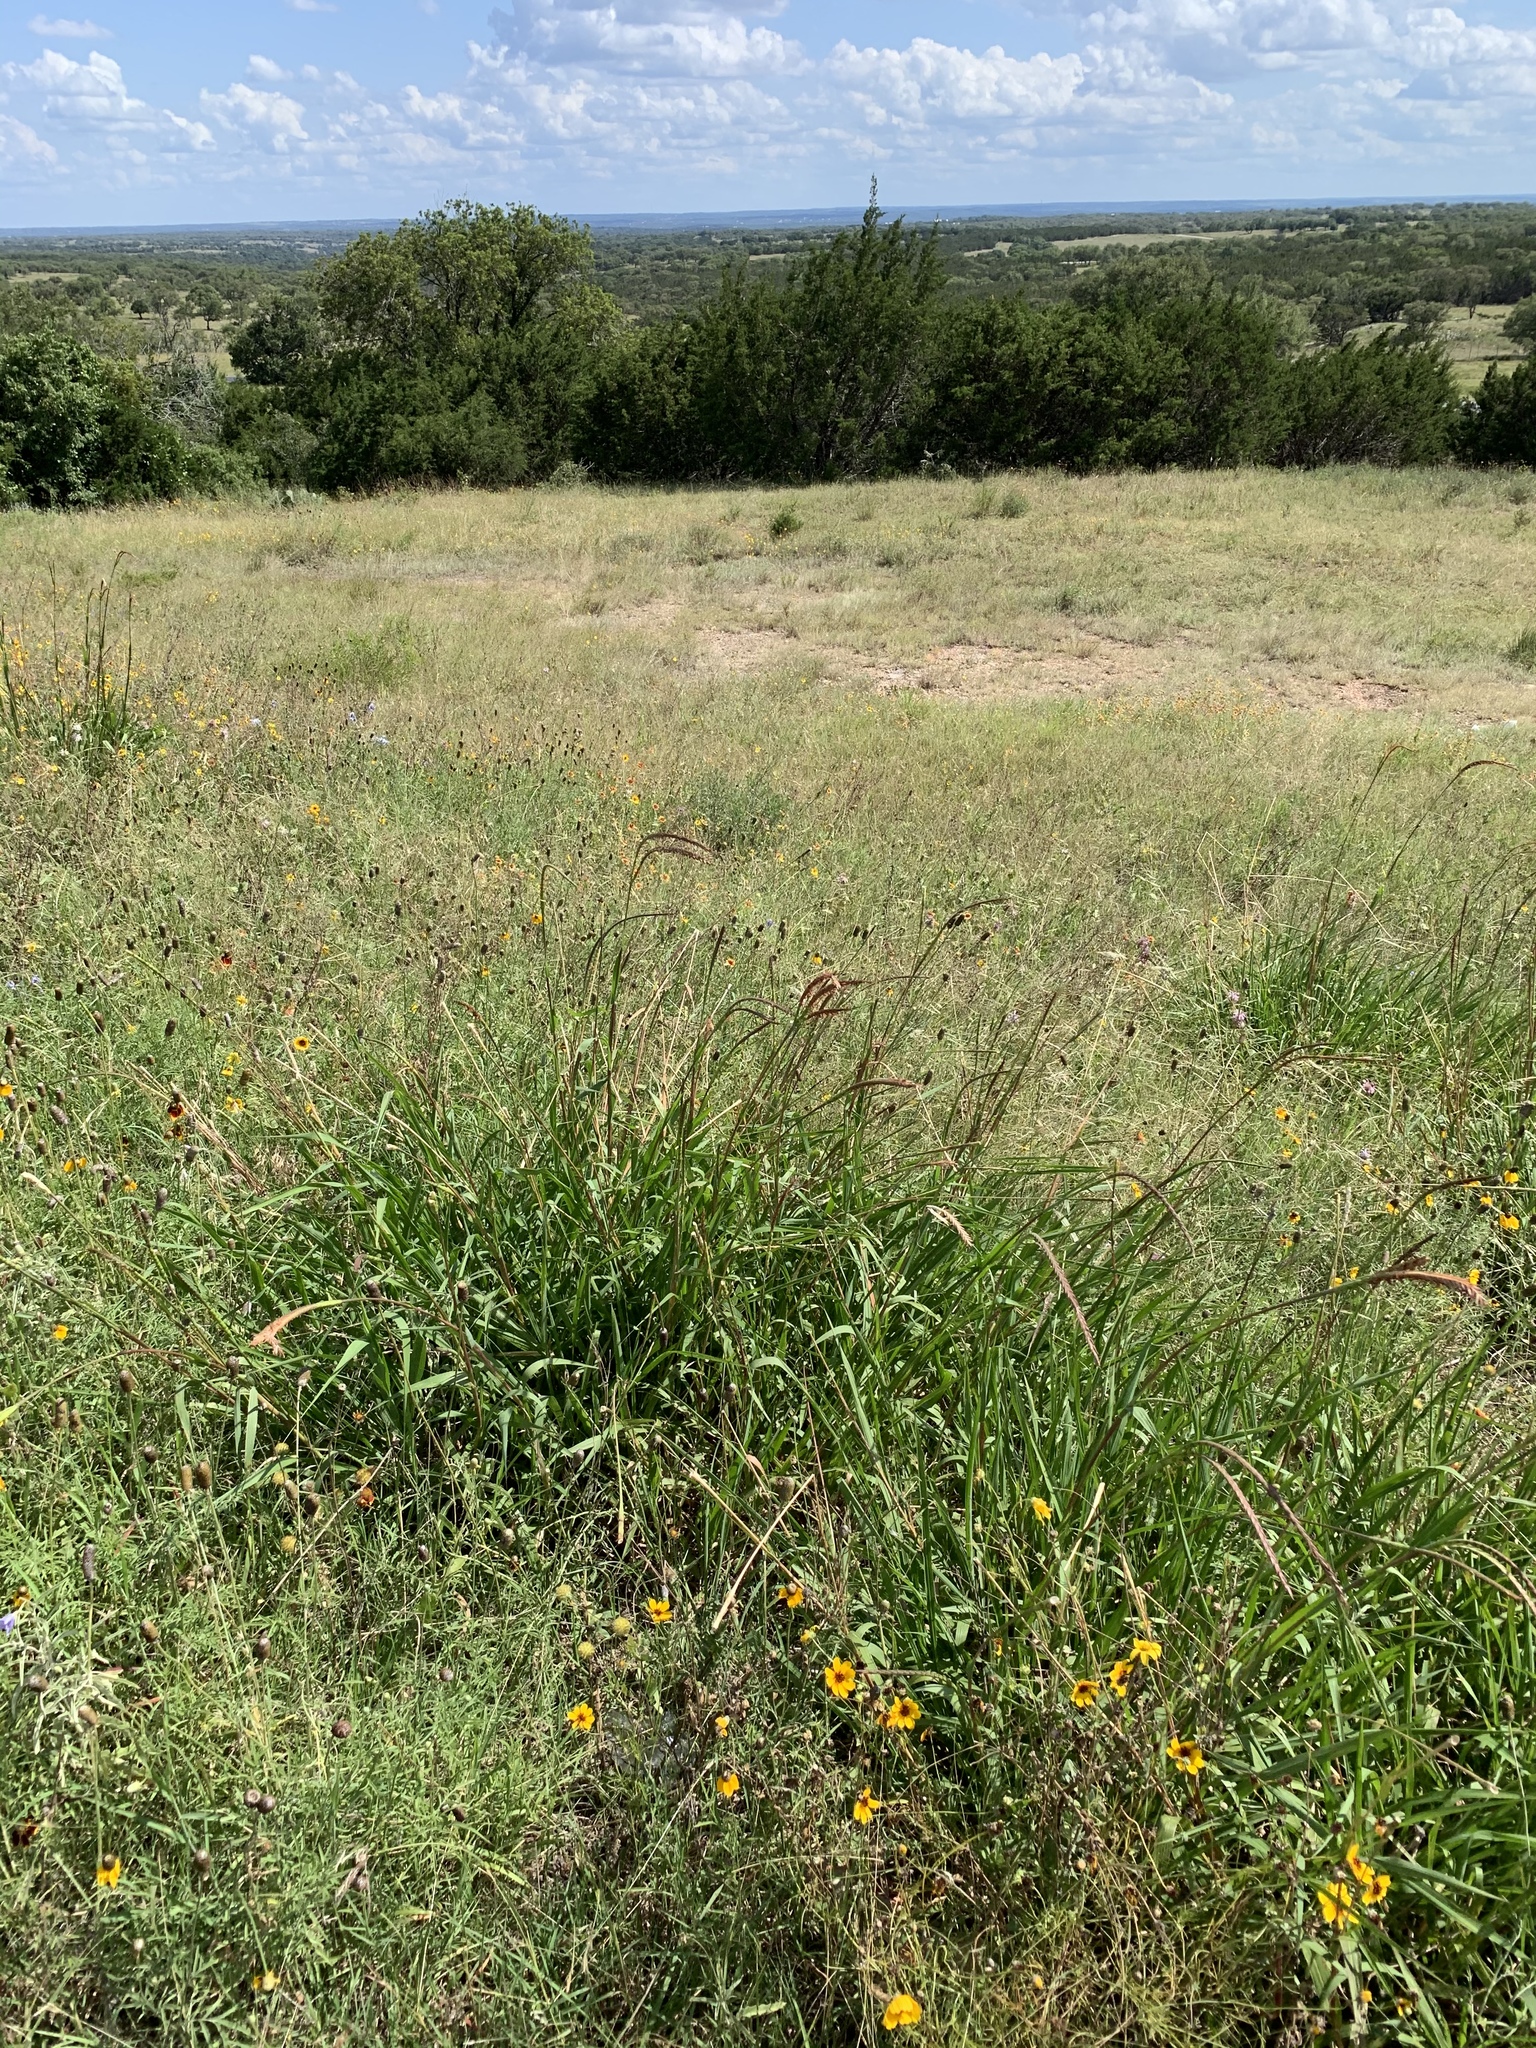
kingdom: Plantae
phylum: Tracheophyta
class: Liliopsida
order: Poales
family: Poaceae
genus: Tripsacum
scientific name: Tripsacum dactyloides
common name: Buffalo-grass
